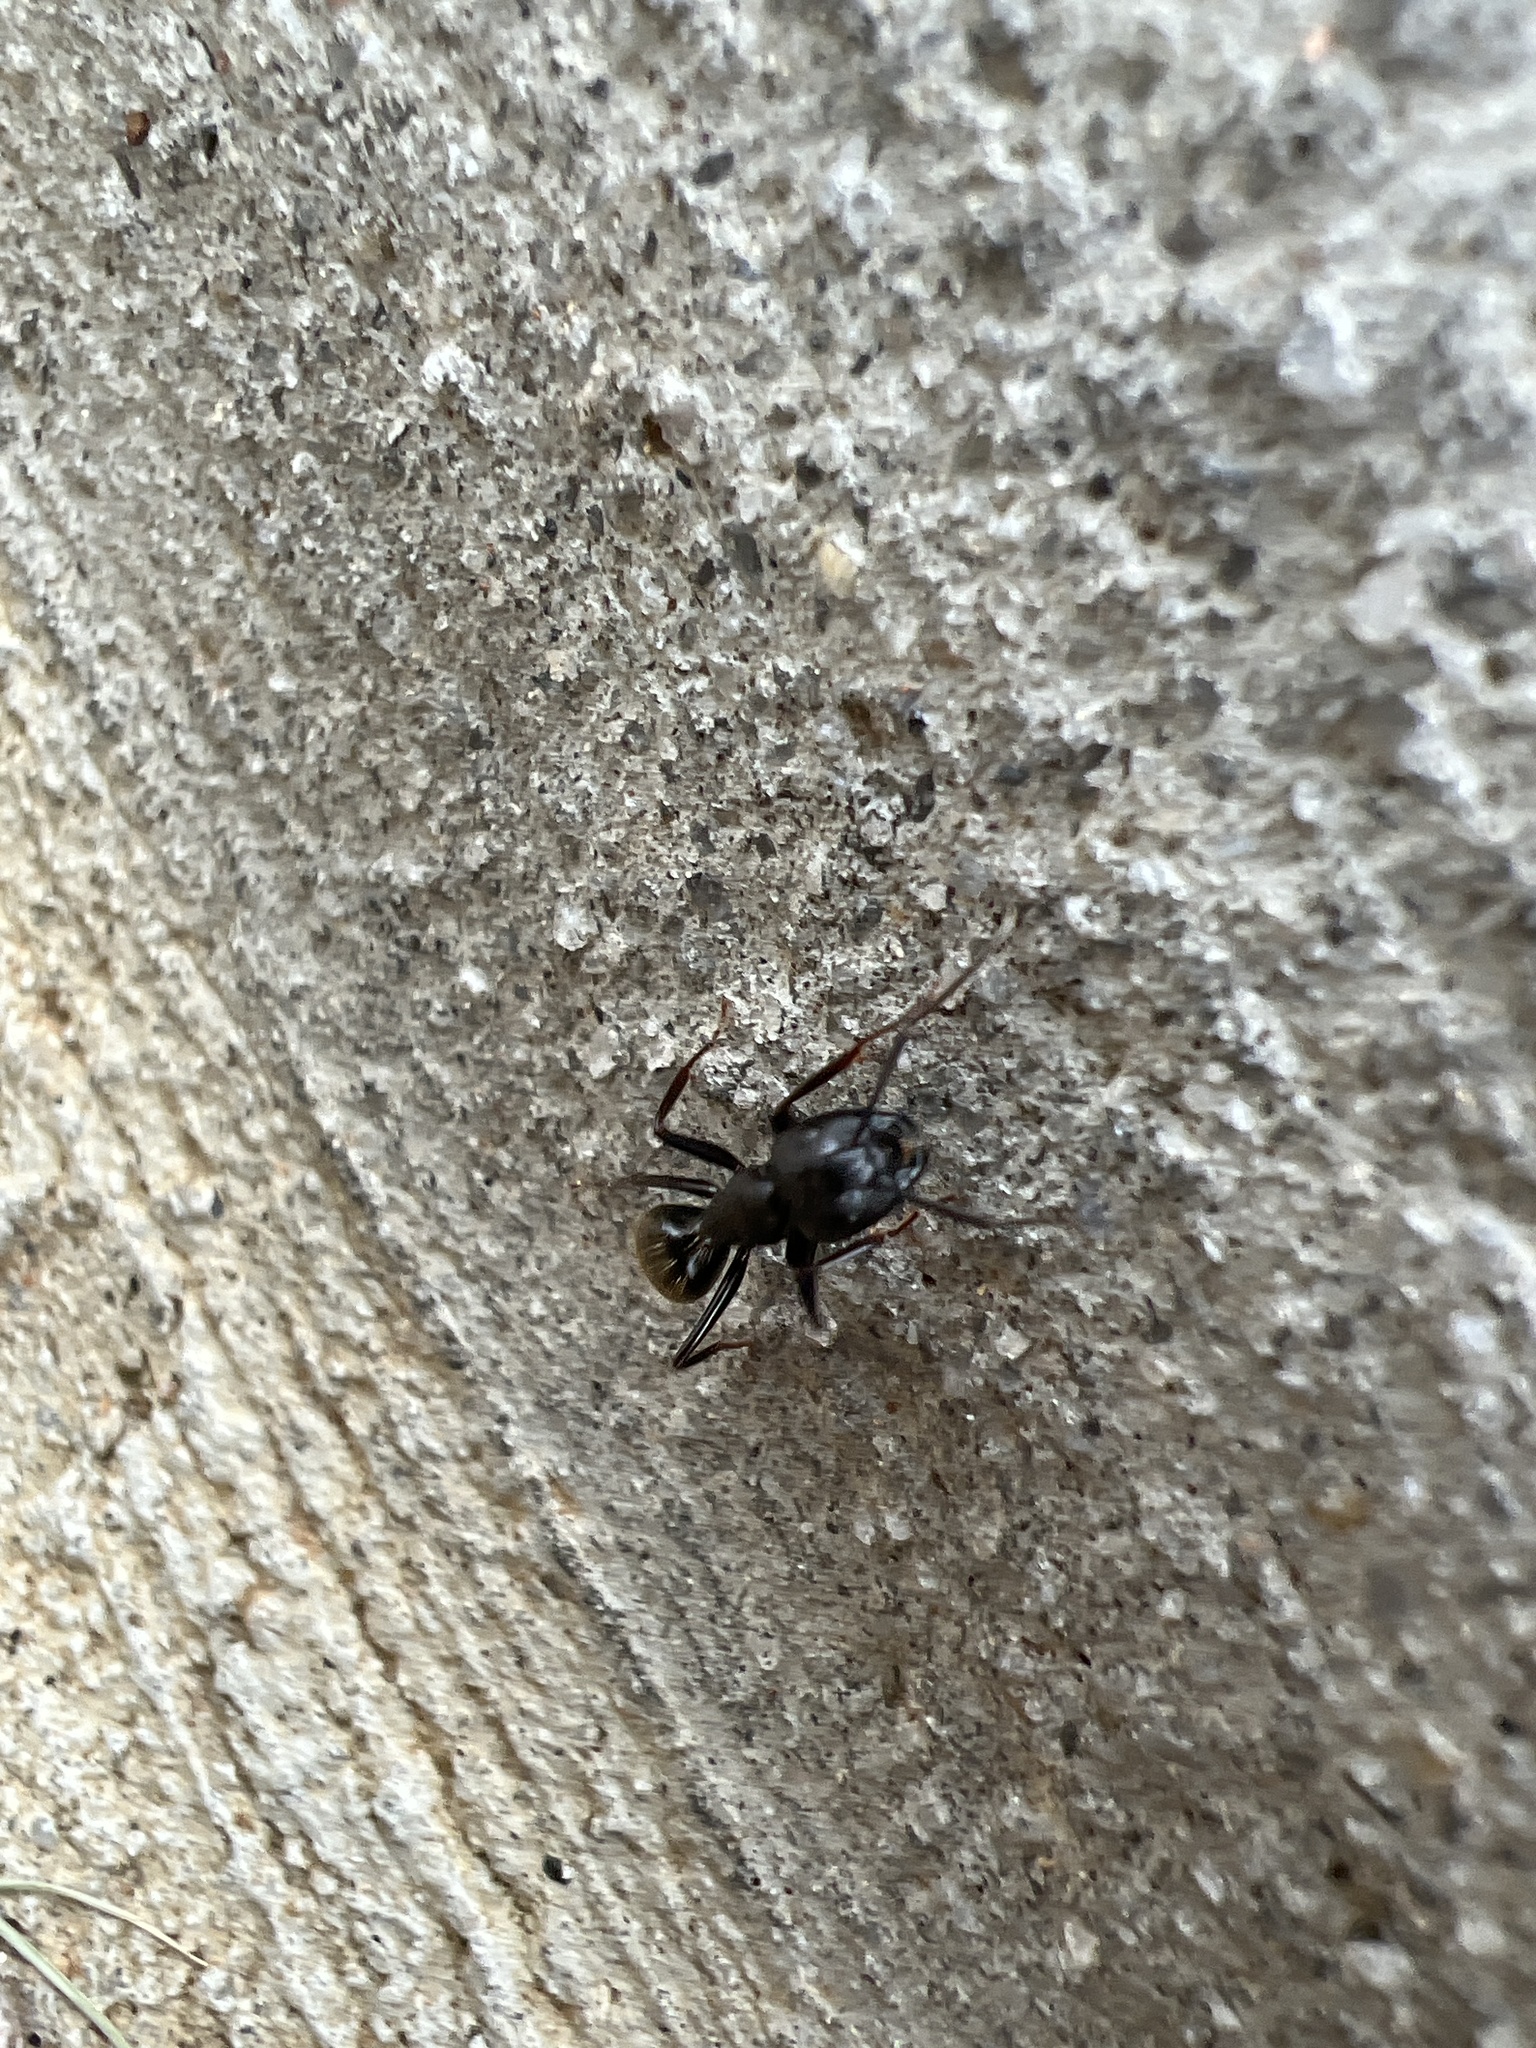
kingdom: Animalia
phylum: Arthropoda
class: Insecta
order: Hymenoptera
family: Formicidae
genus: Camponotus
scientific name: Camponotus pennsylvanicus
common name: Black carpenter ant
